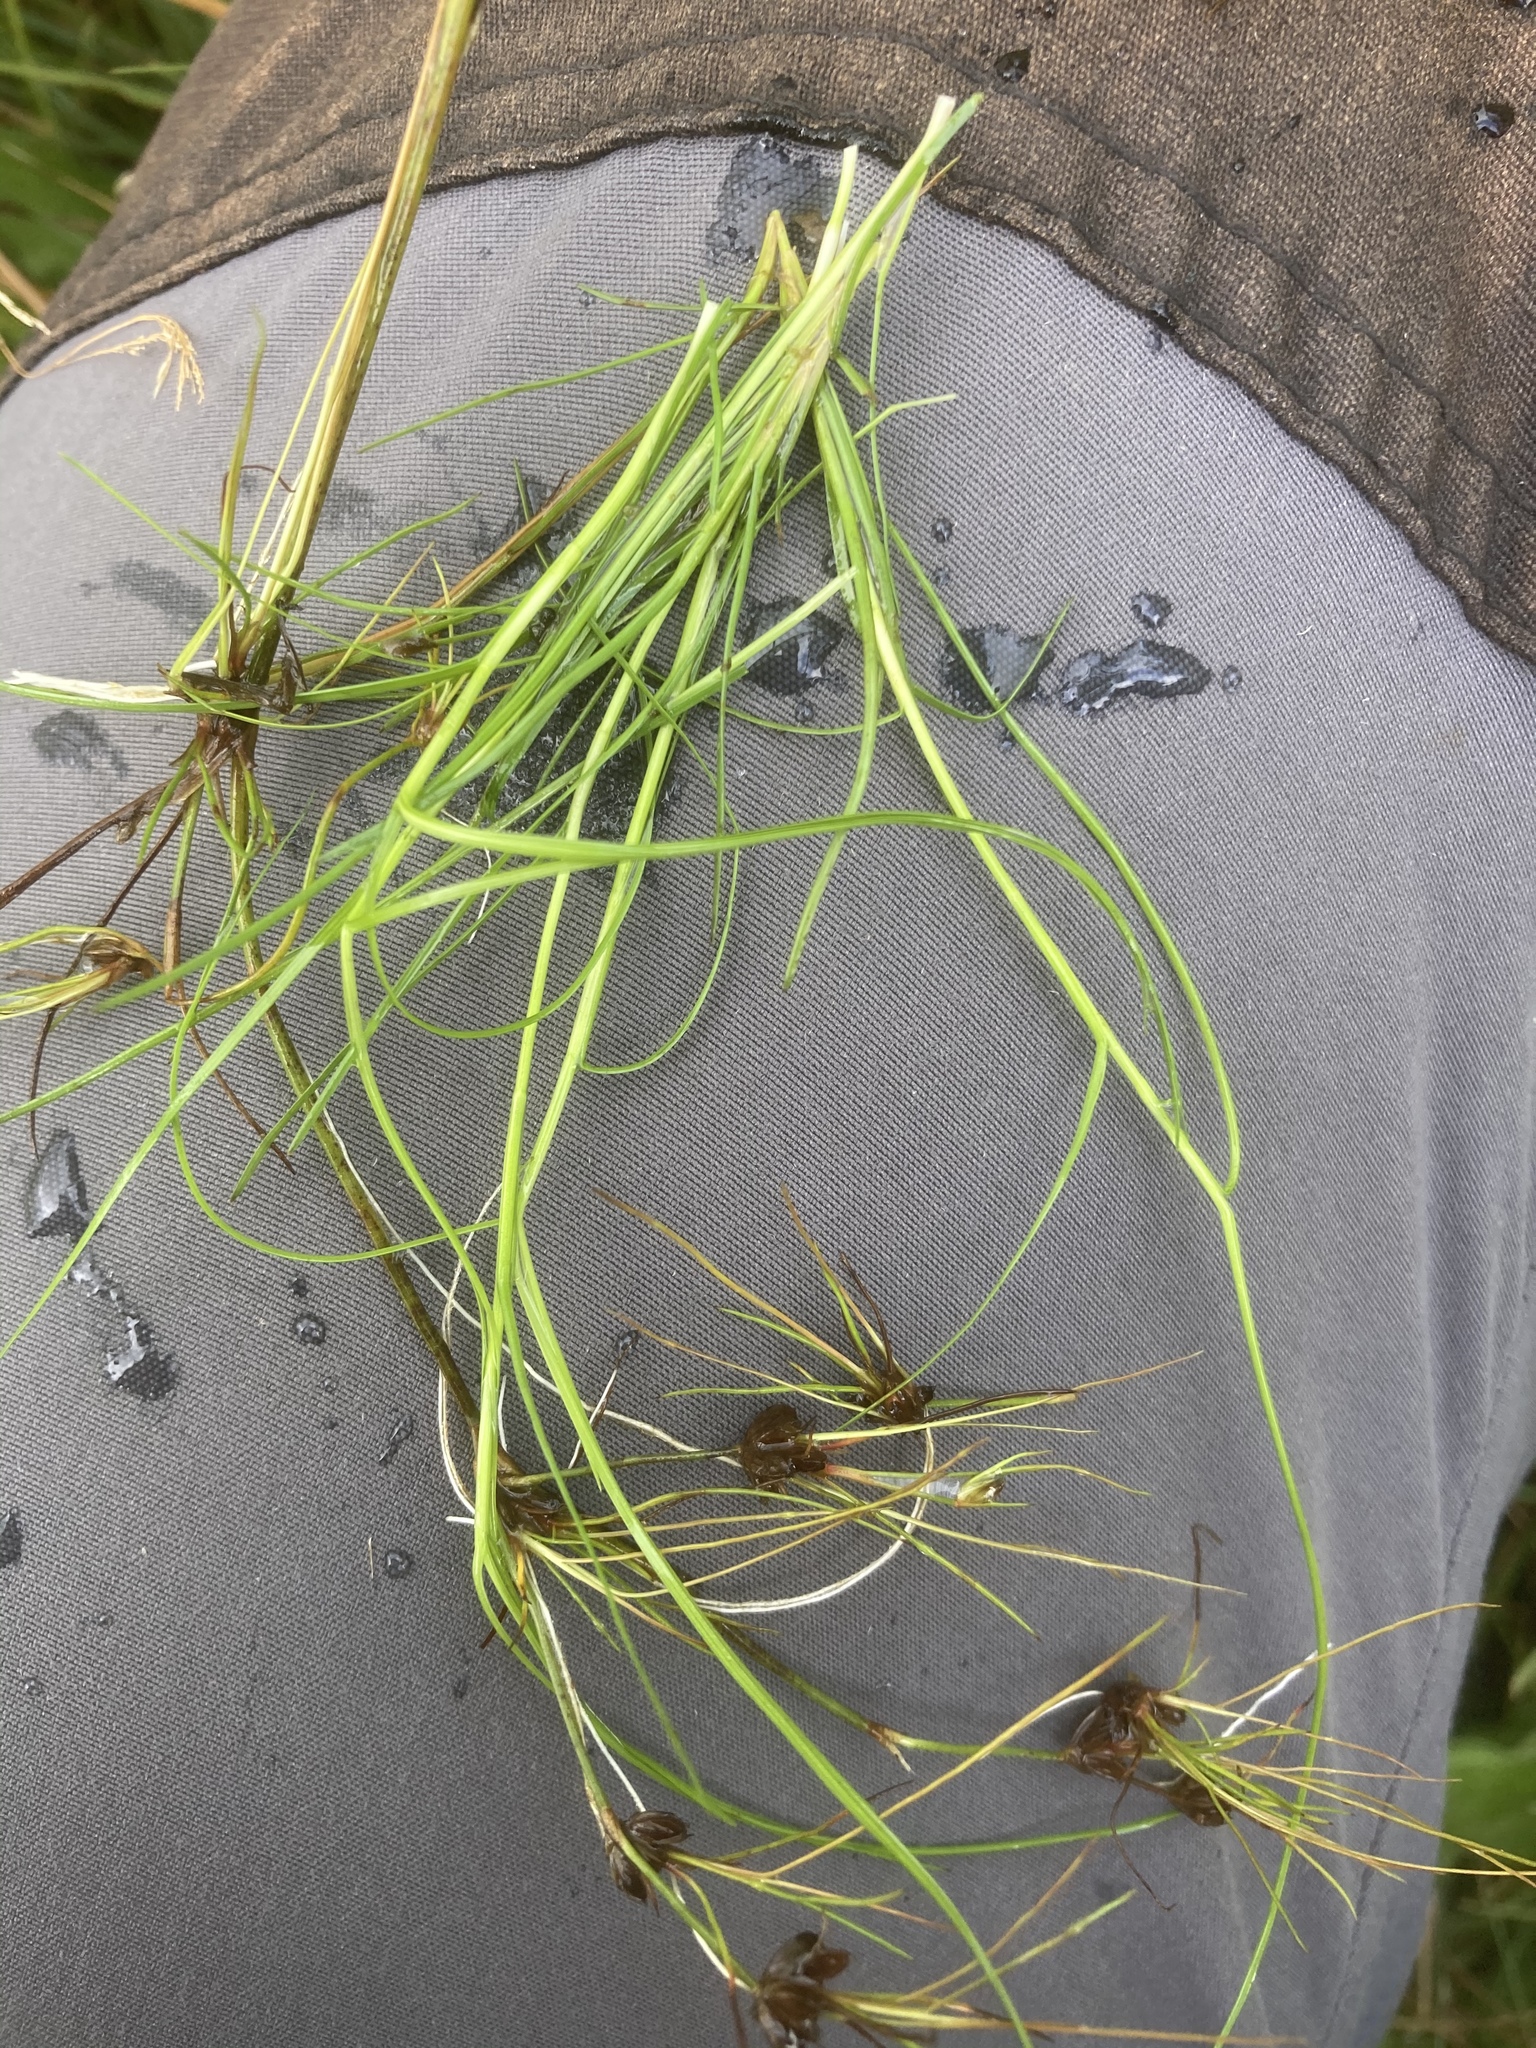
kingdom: Plantae
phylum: Tracheophyta
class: Liliopsida
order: Poales
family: Cyperaceae
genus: Isolepis
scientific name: Isolepis fluitans
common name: Floating club-rush
